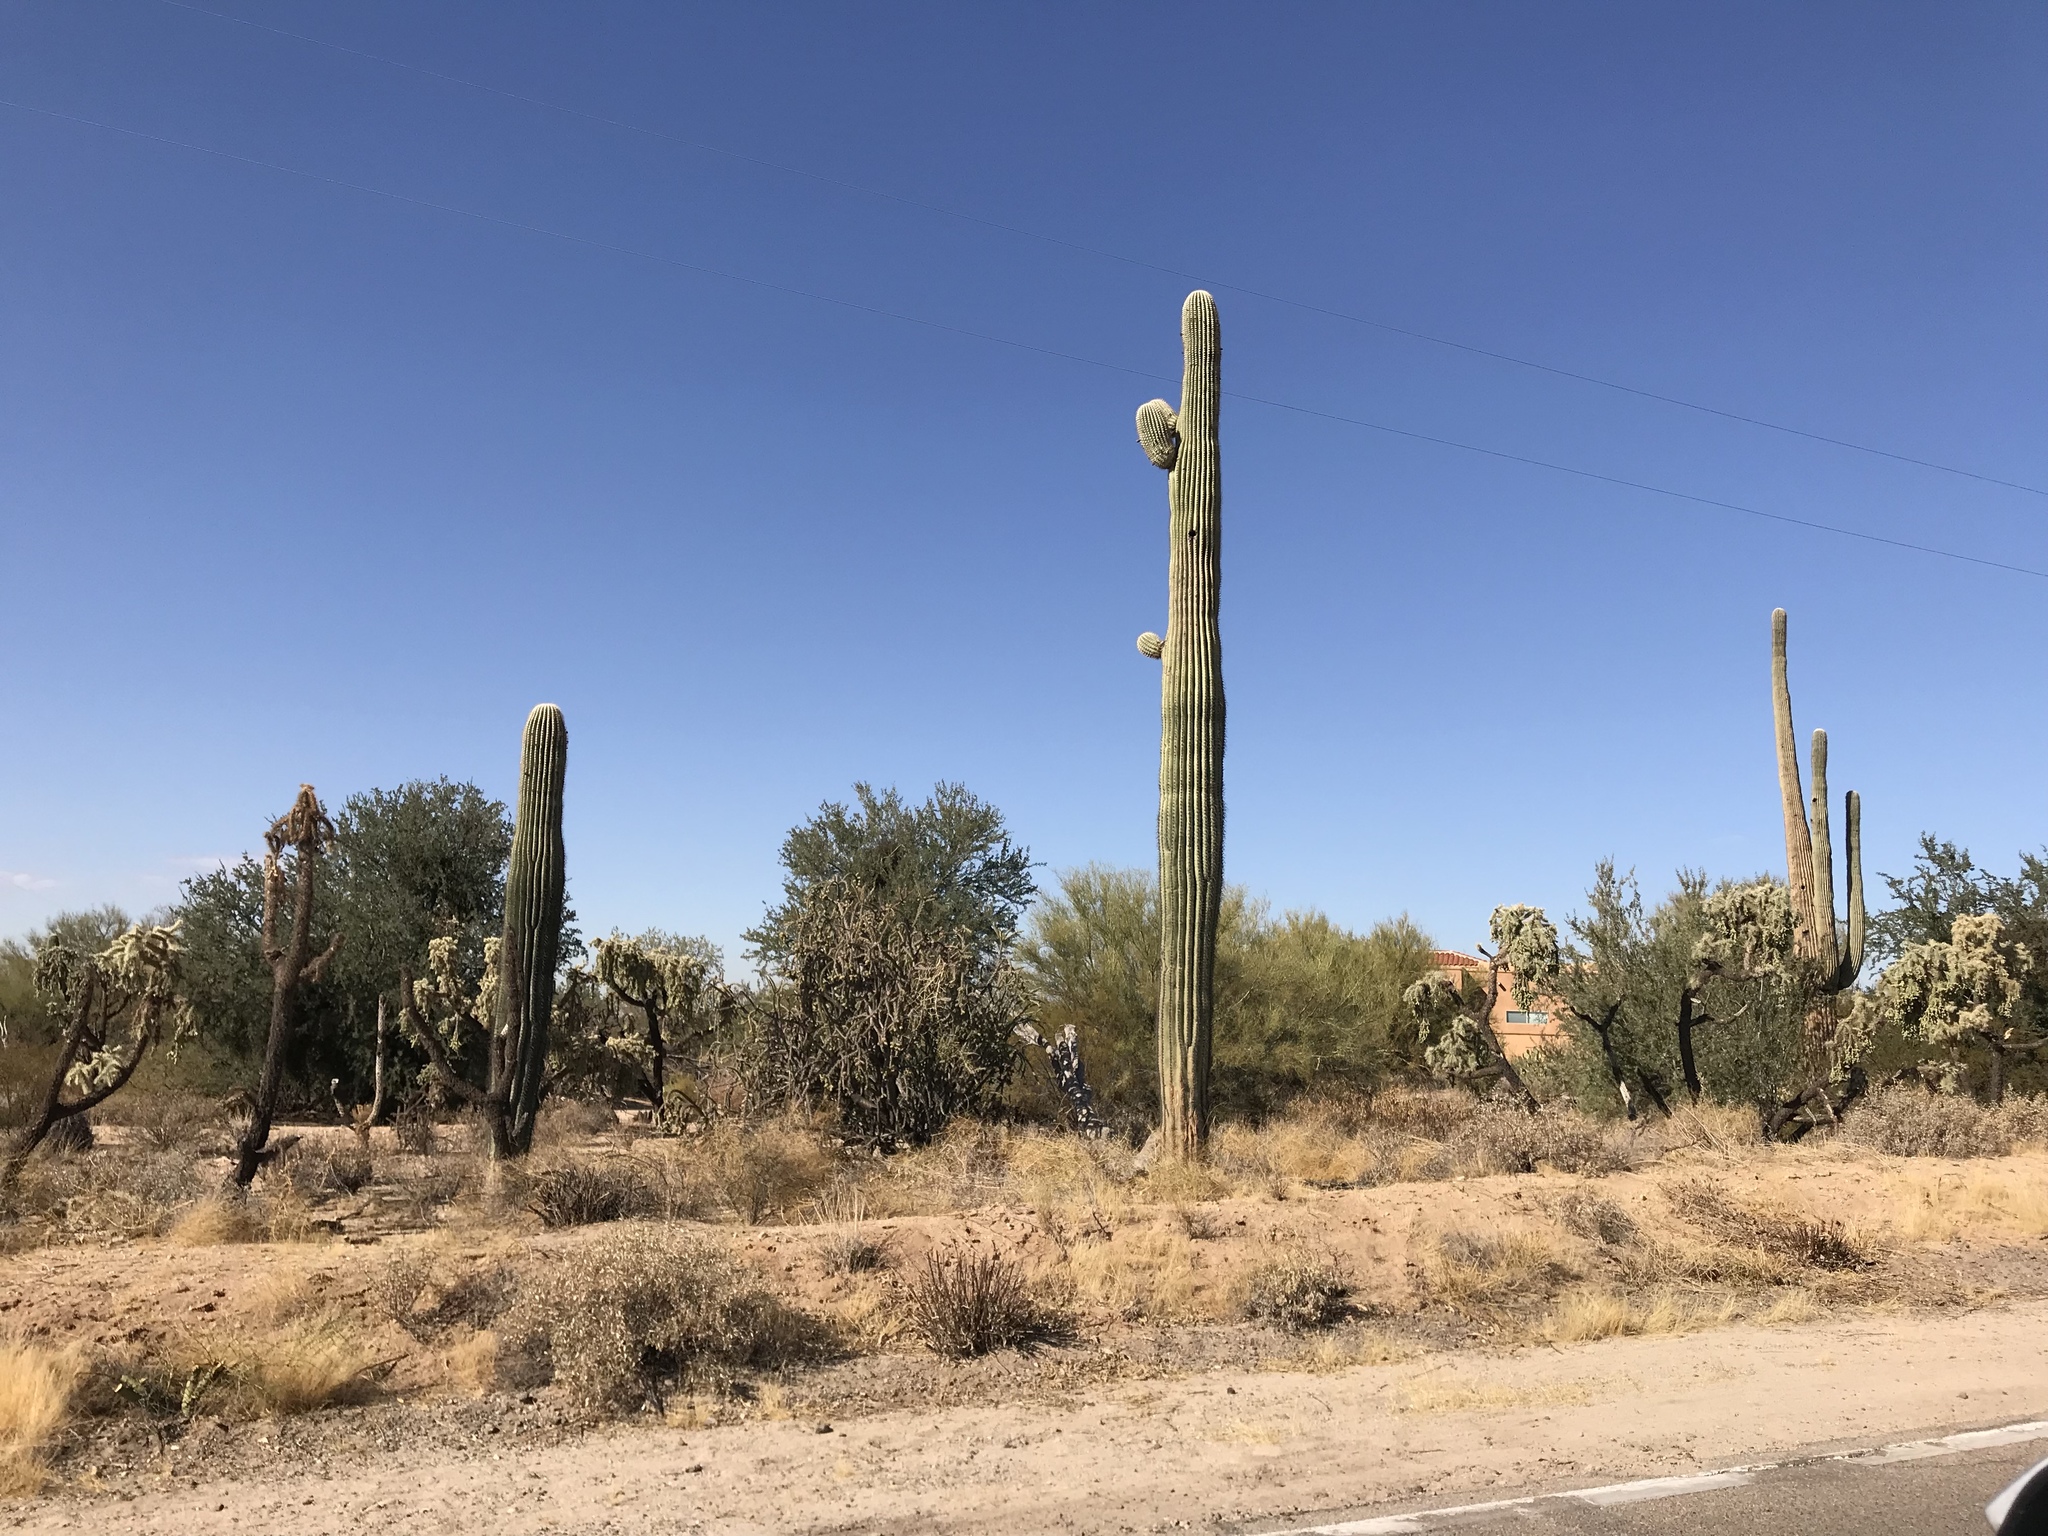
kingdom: Plantae
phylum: Tracheophyta
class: Magnoliopsida
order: Caryophyllales
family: Cactaceae
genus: Carnegiea
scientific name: Carnegiea gigantea
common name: Saguaro
